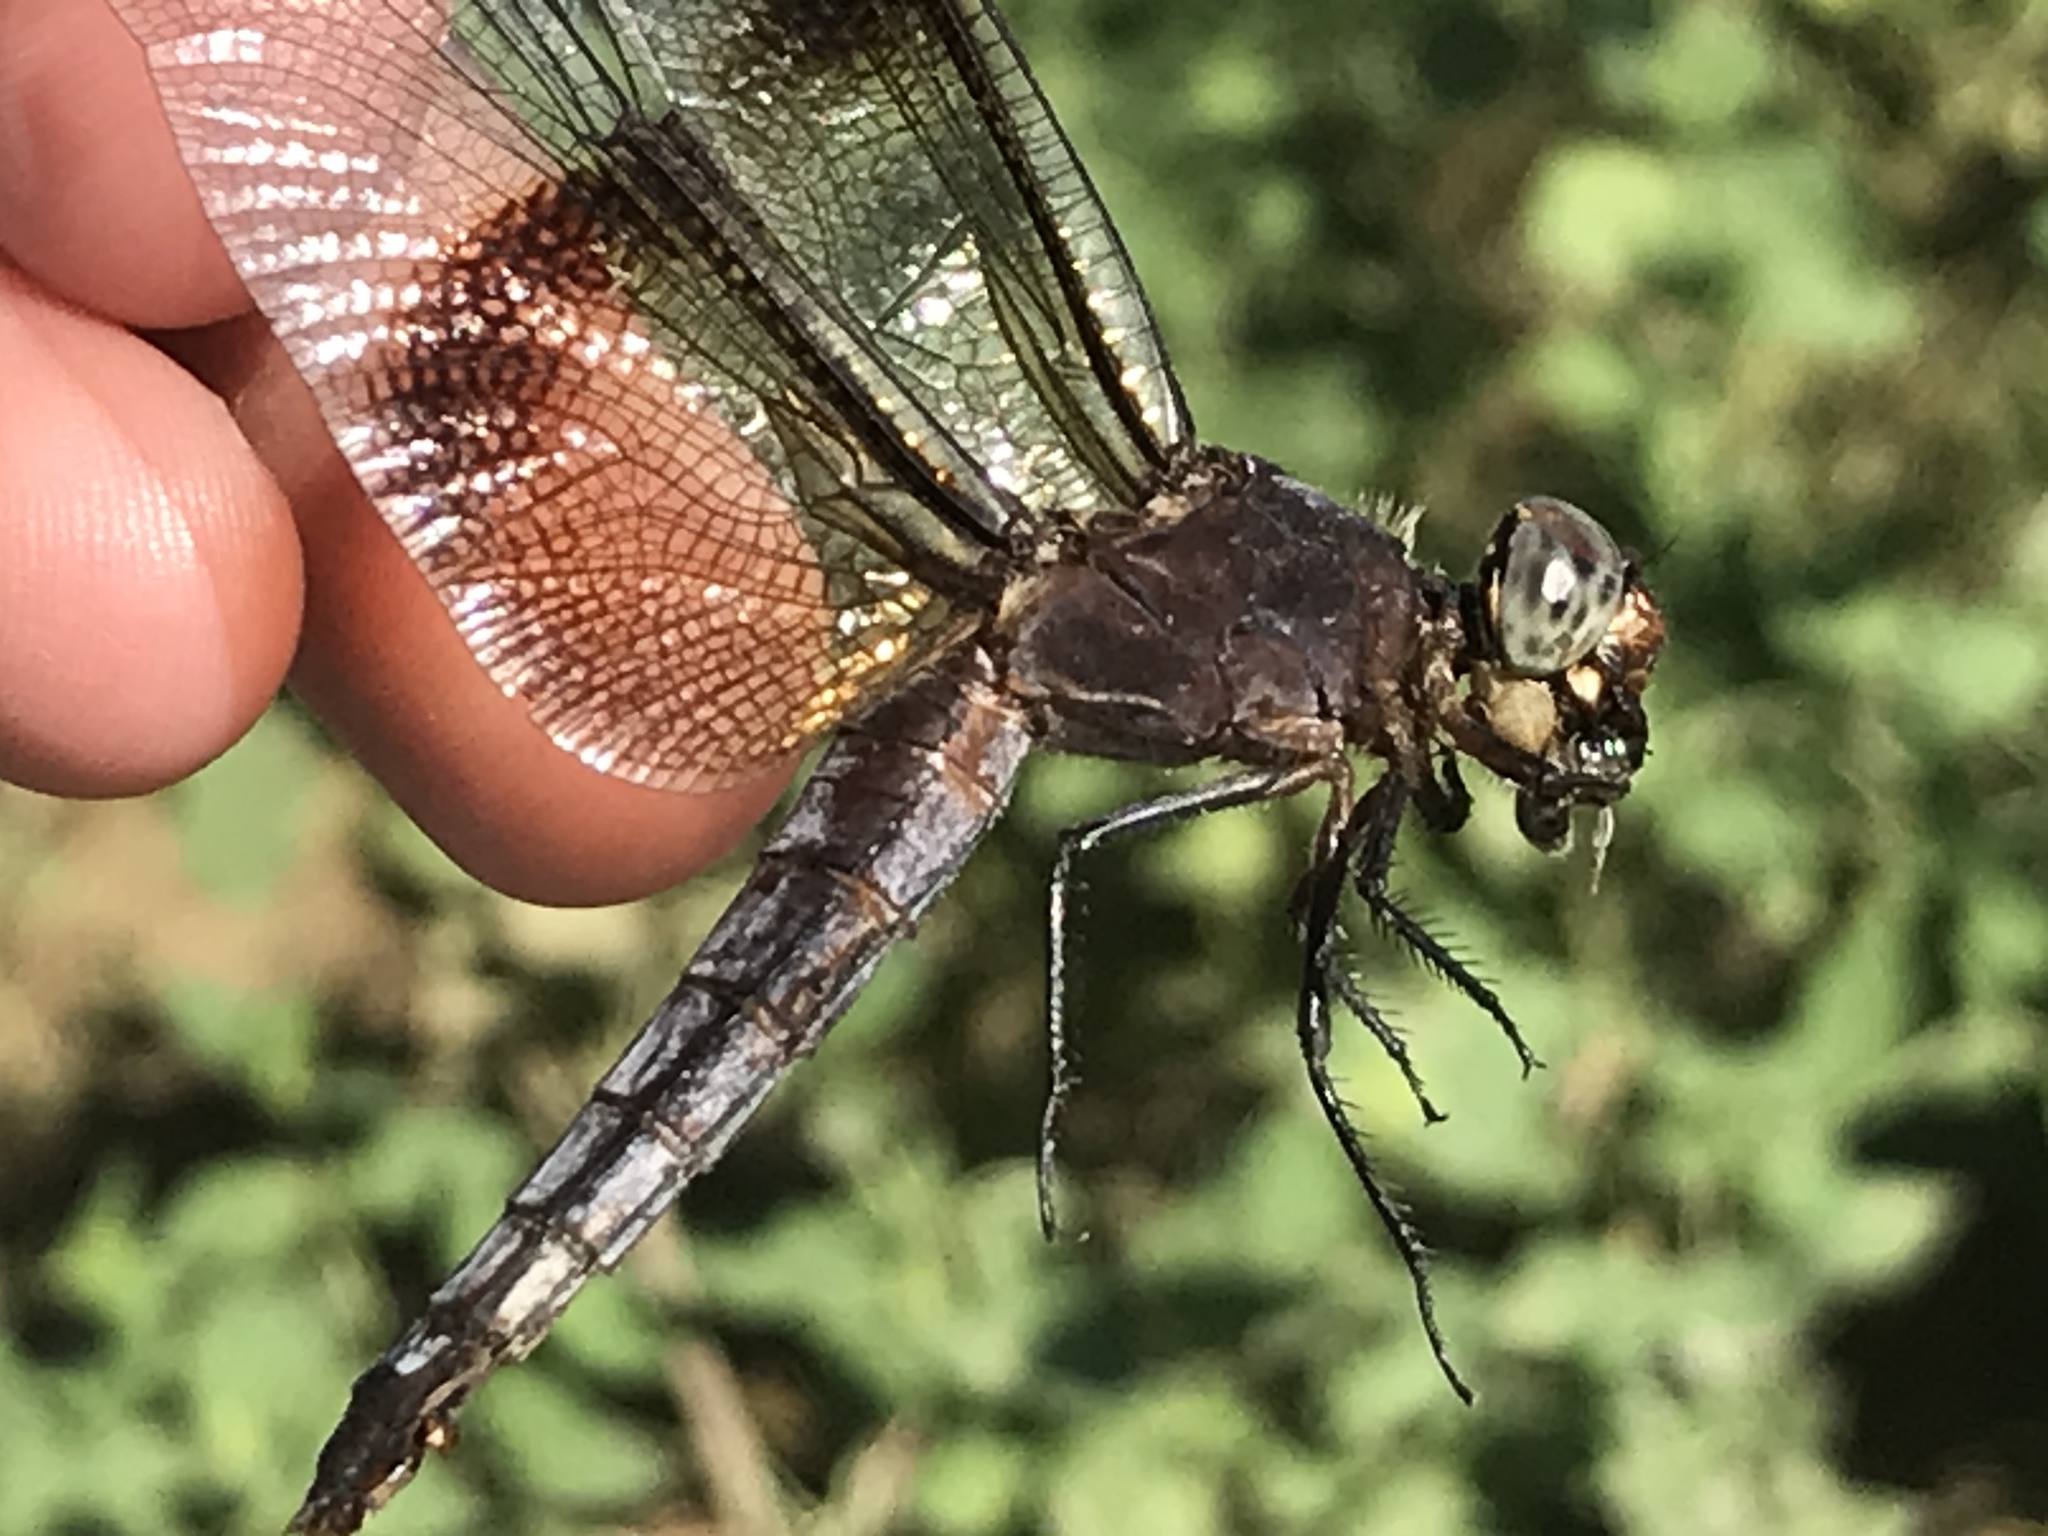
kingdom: Animalia
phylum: Arthropoda
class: Insecta
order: Odonata
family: Libellulidae
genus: Libellula
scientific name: Libellula luctuosa
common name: Widow skimmer
